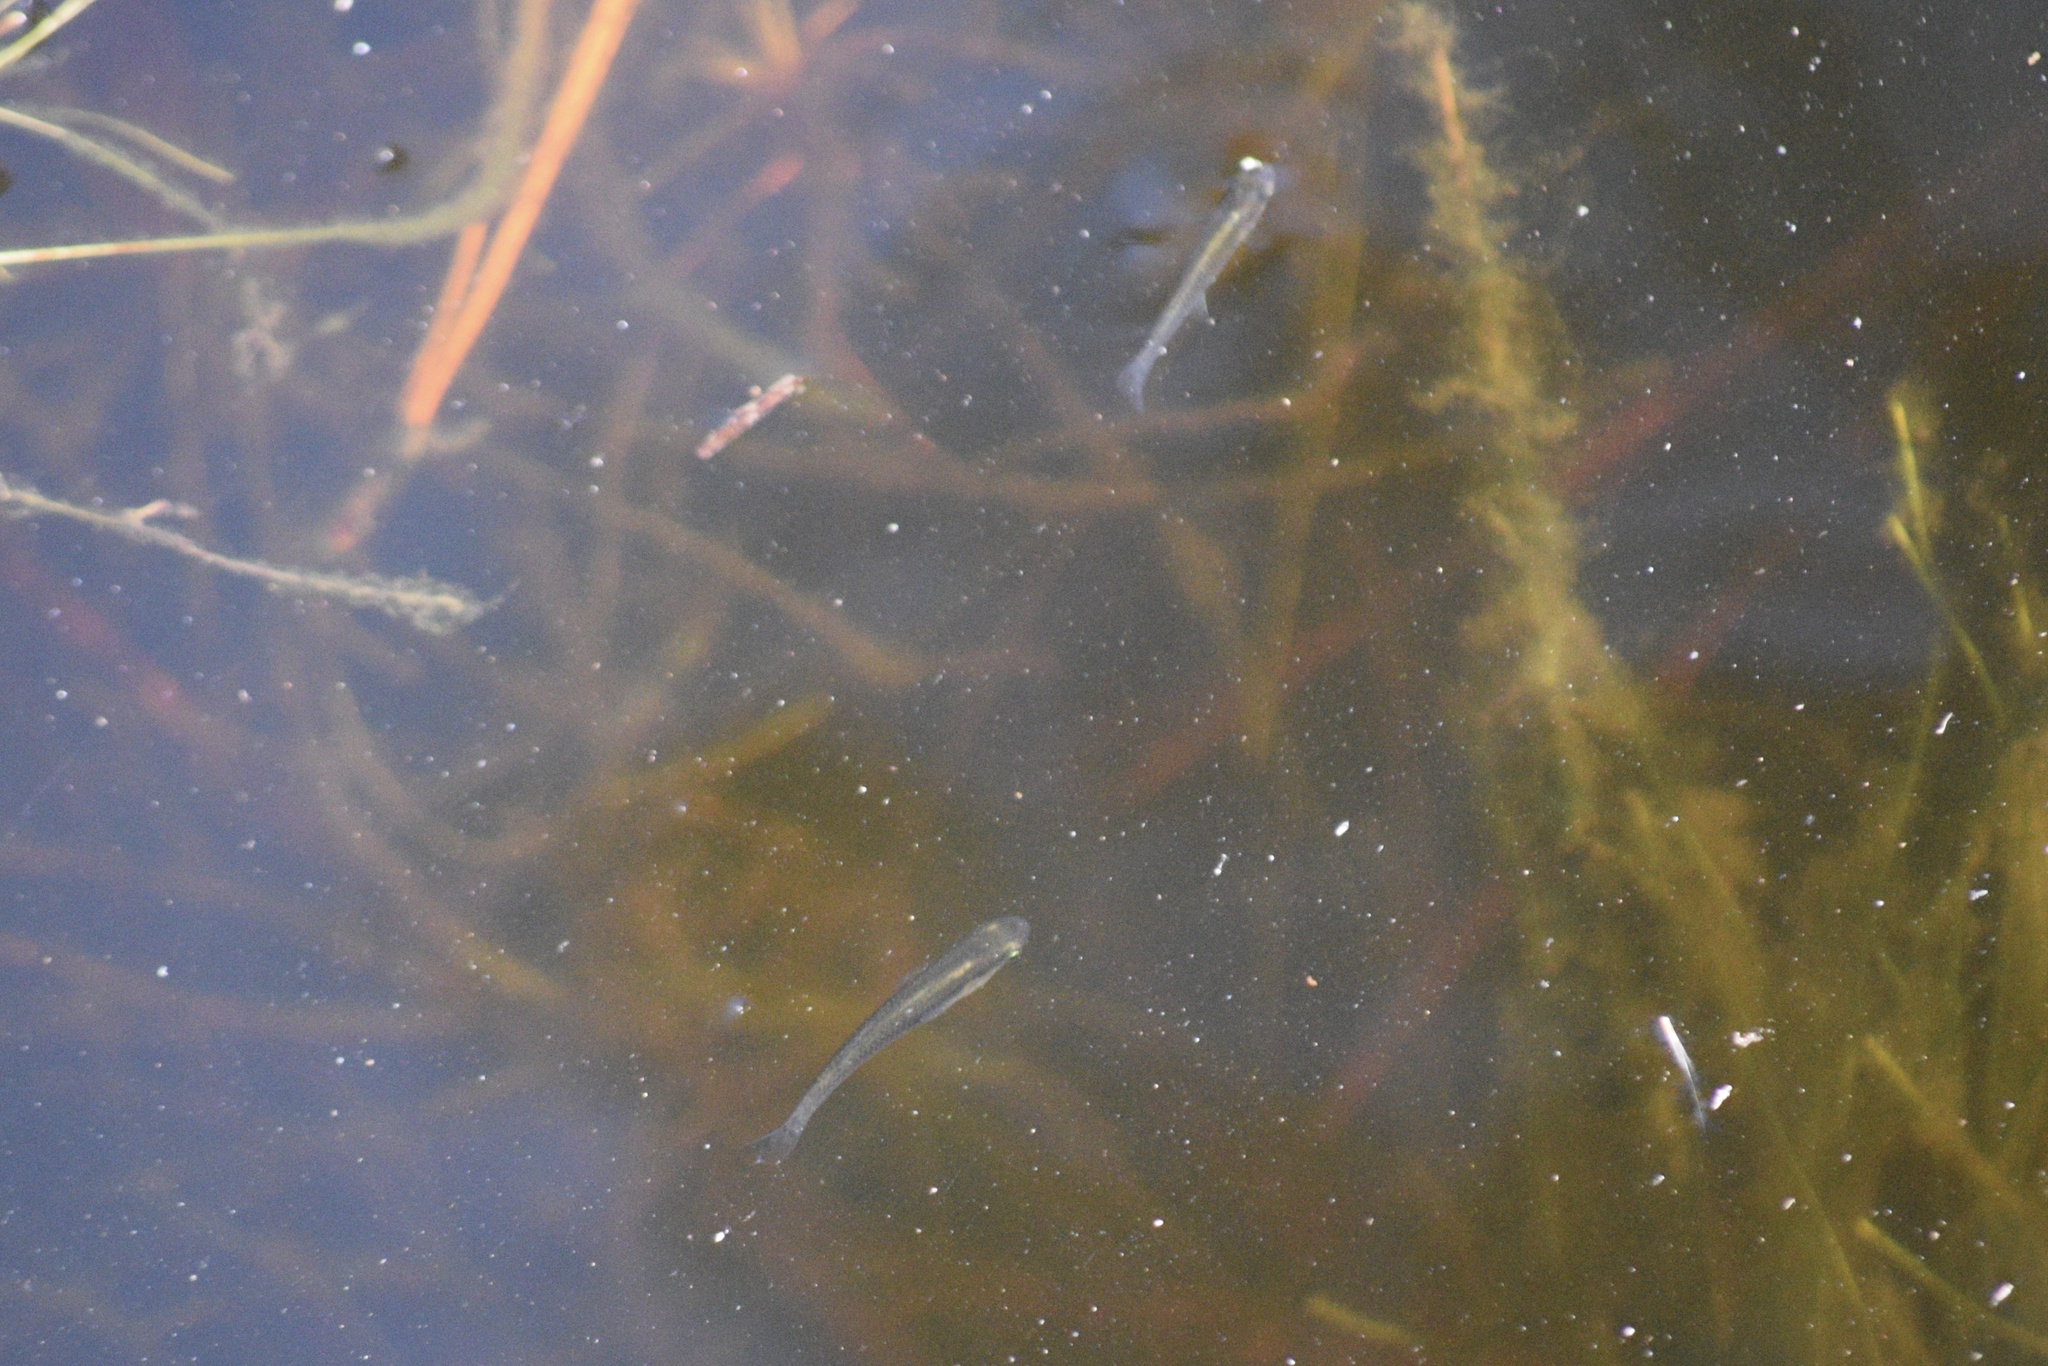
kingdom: Animalia
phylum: Chordata
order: Cyprinodontiformes
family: Poeciliidae
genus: Gambusia
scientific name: Gambusia holbrooki
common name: Eastern mosquitofish
